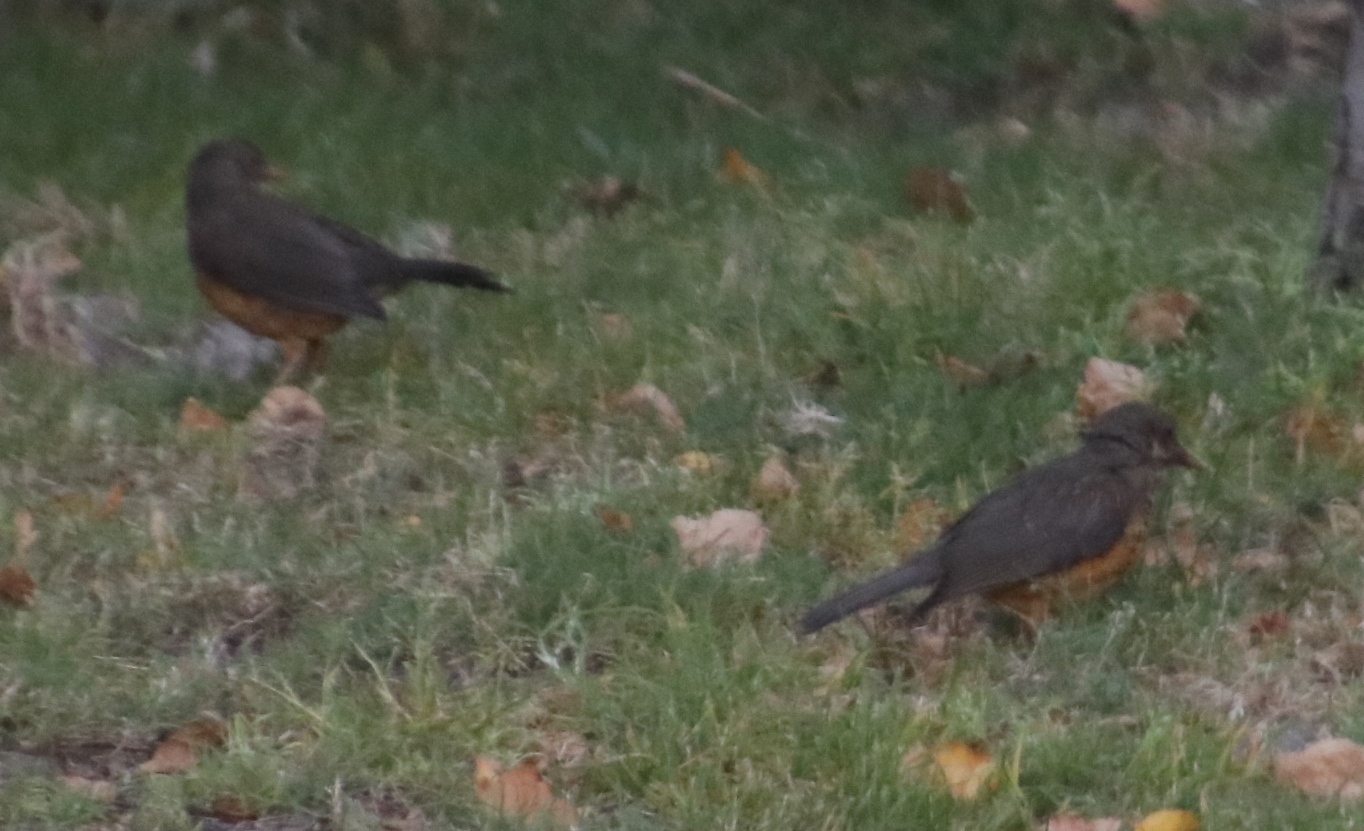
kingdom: Animalia
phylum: Chordata
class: Aves
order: Passeriformes
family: Turdidae
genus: Turdus
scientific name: Turdus olivaceus
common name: Olive thrush
